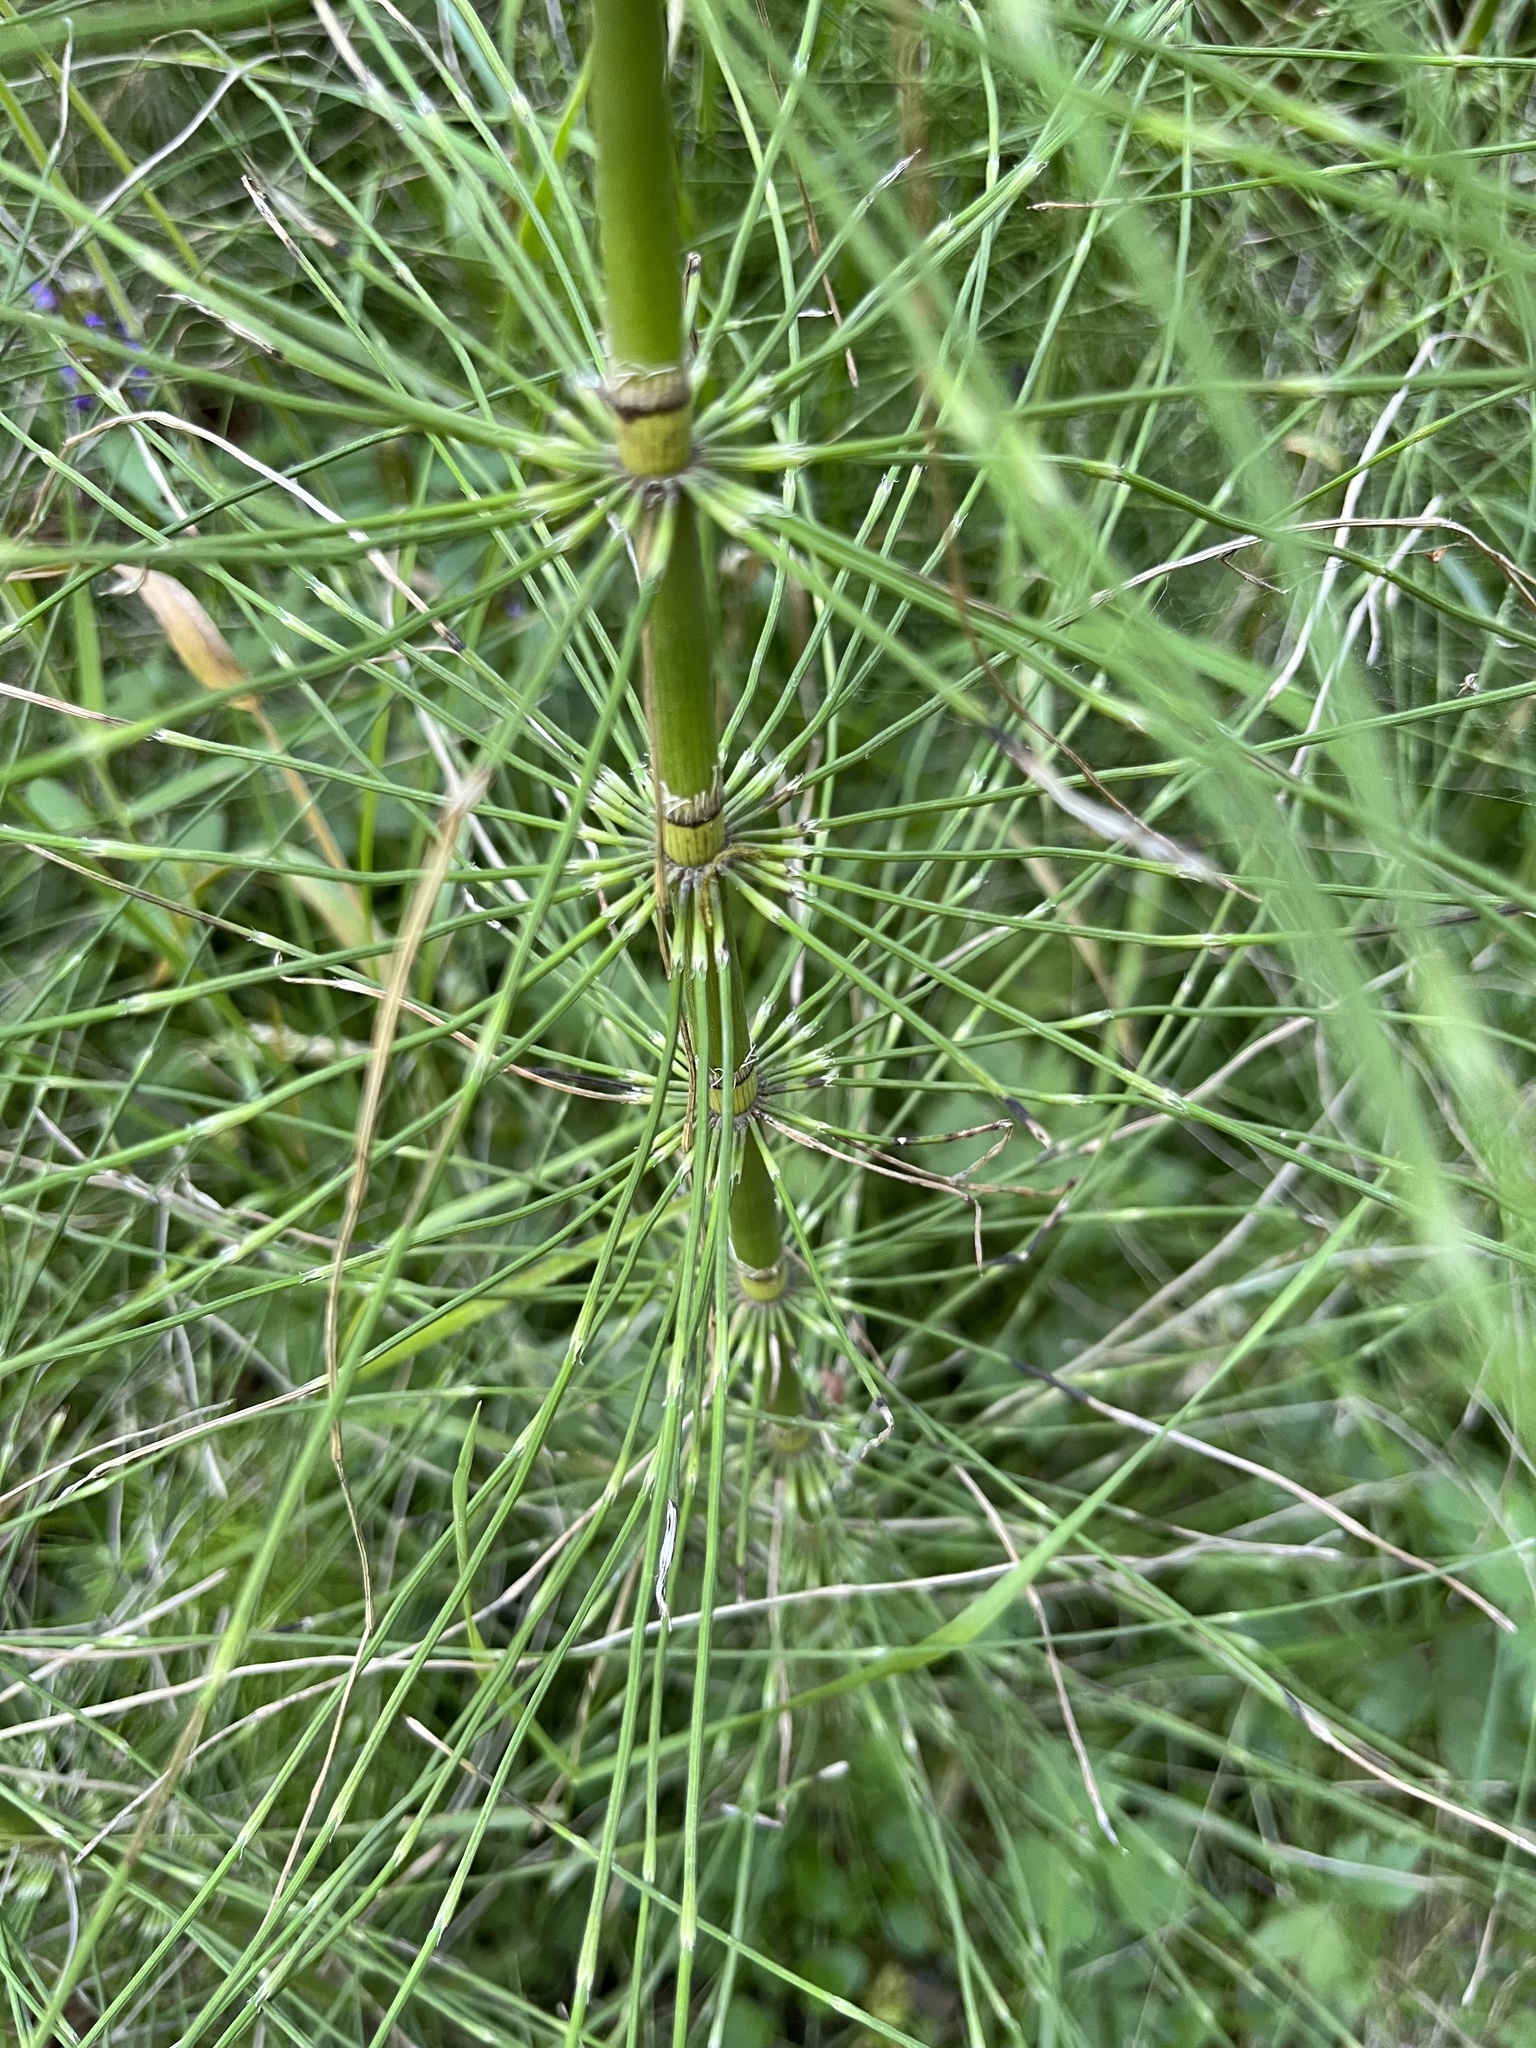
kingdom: Plantae
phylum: Tracheophyta
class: Polypodiopsida
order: Equisetales
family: Equisetaceae
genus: Equisetum
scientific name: Equisetum braunii
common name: Braun's horsetail
